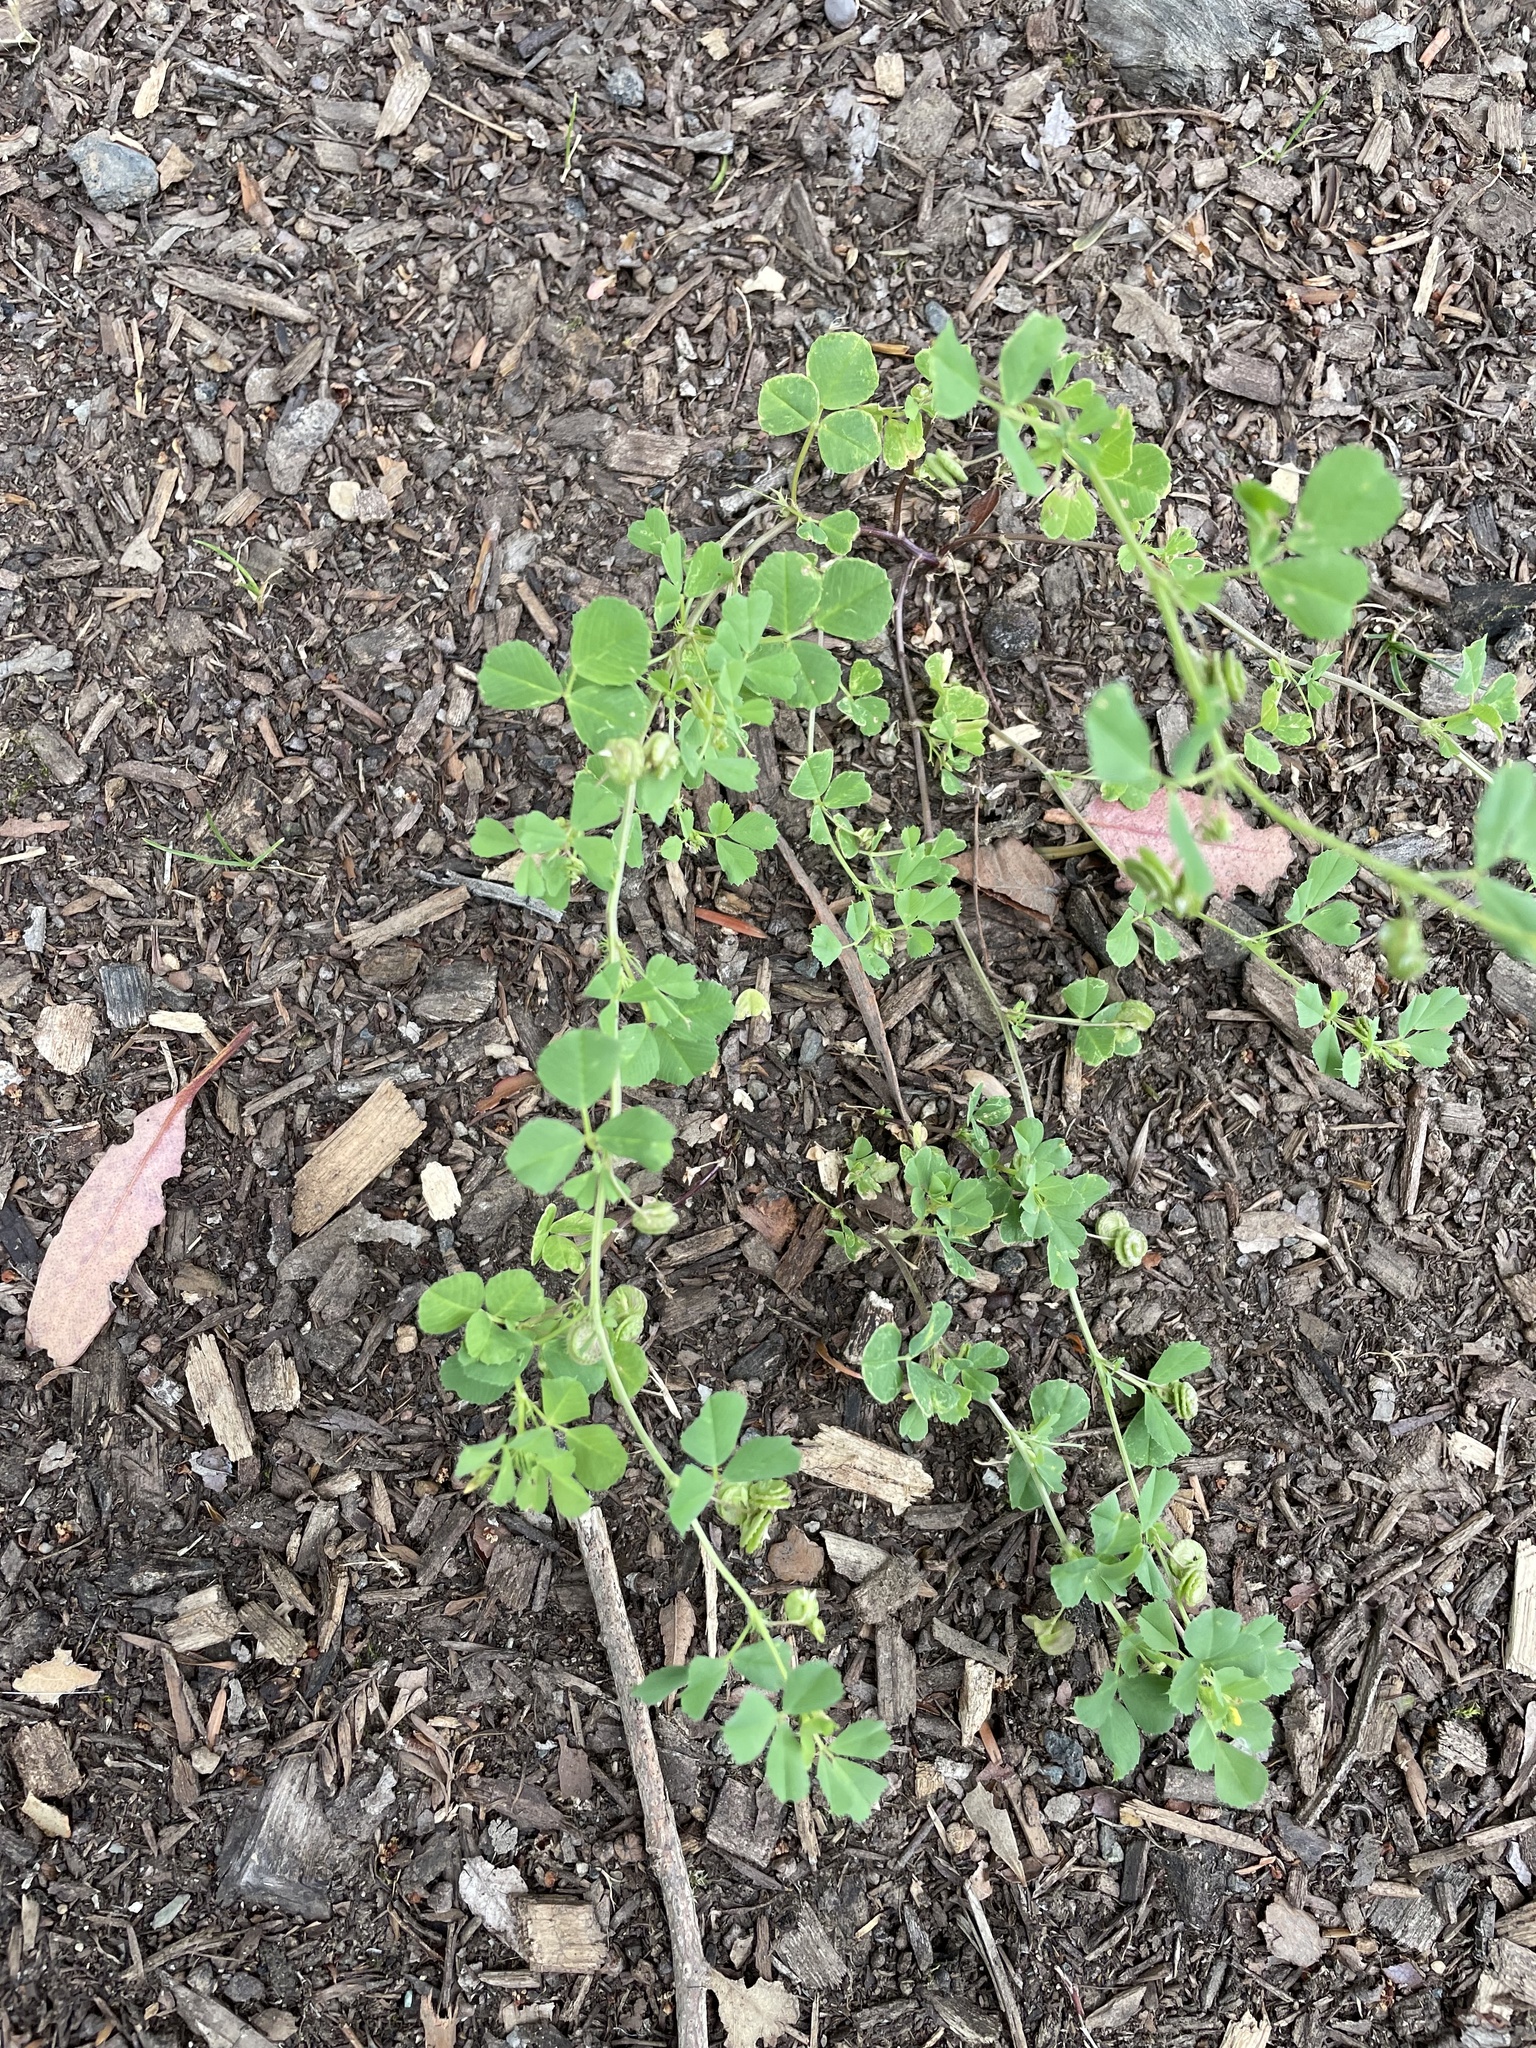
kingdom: Plantae
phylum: Tracheophyta
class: Magnoliopsida
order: Fabales
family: Fabaceae
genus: Medicago
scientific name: Medicago polymorpha
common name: Burclover
